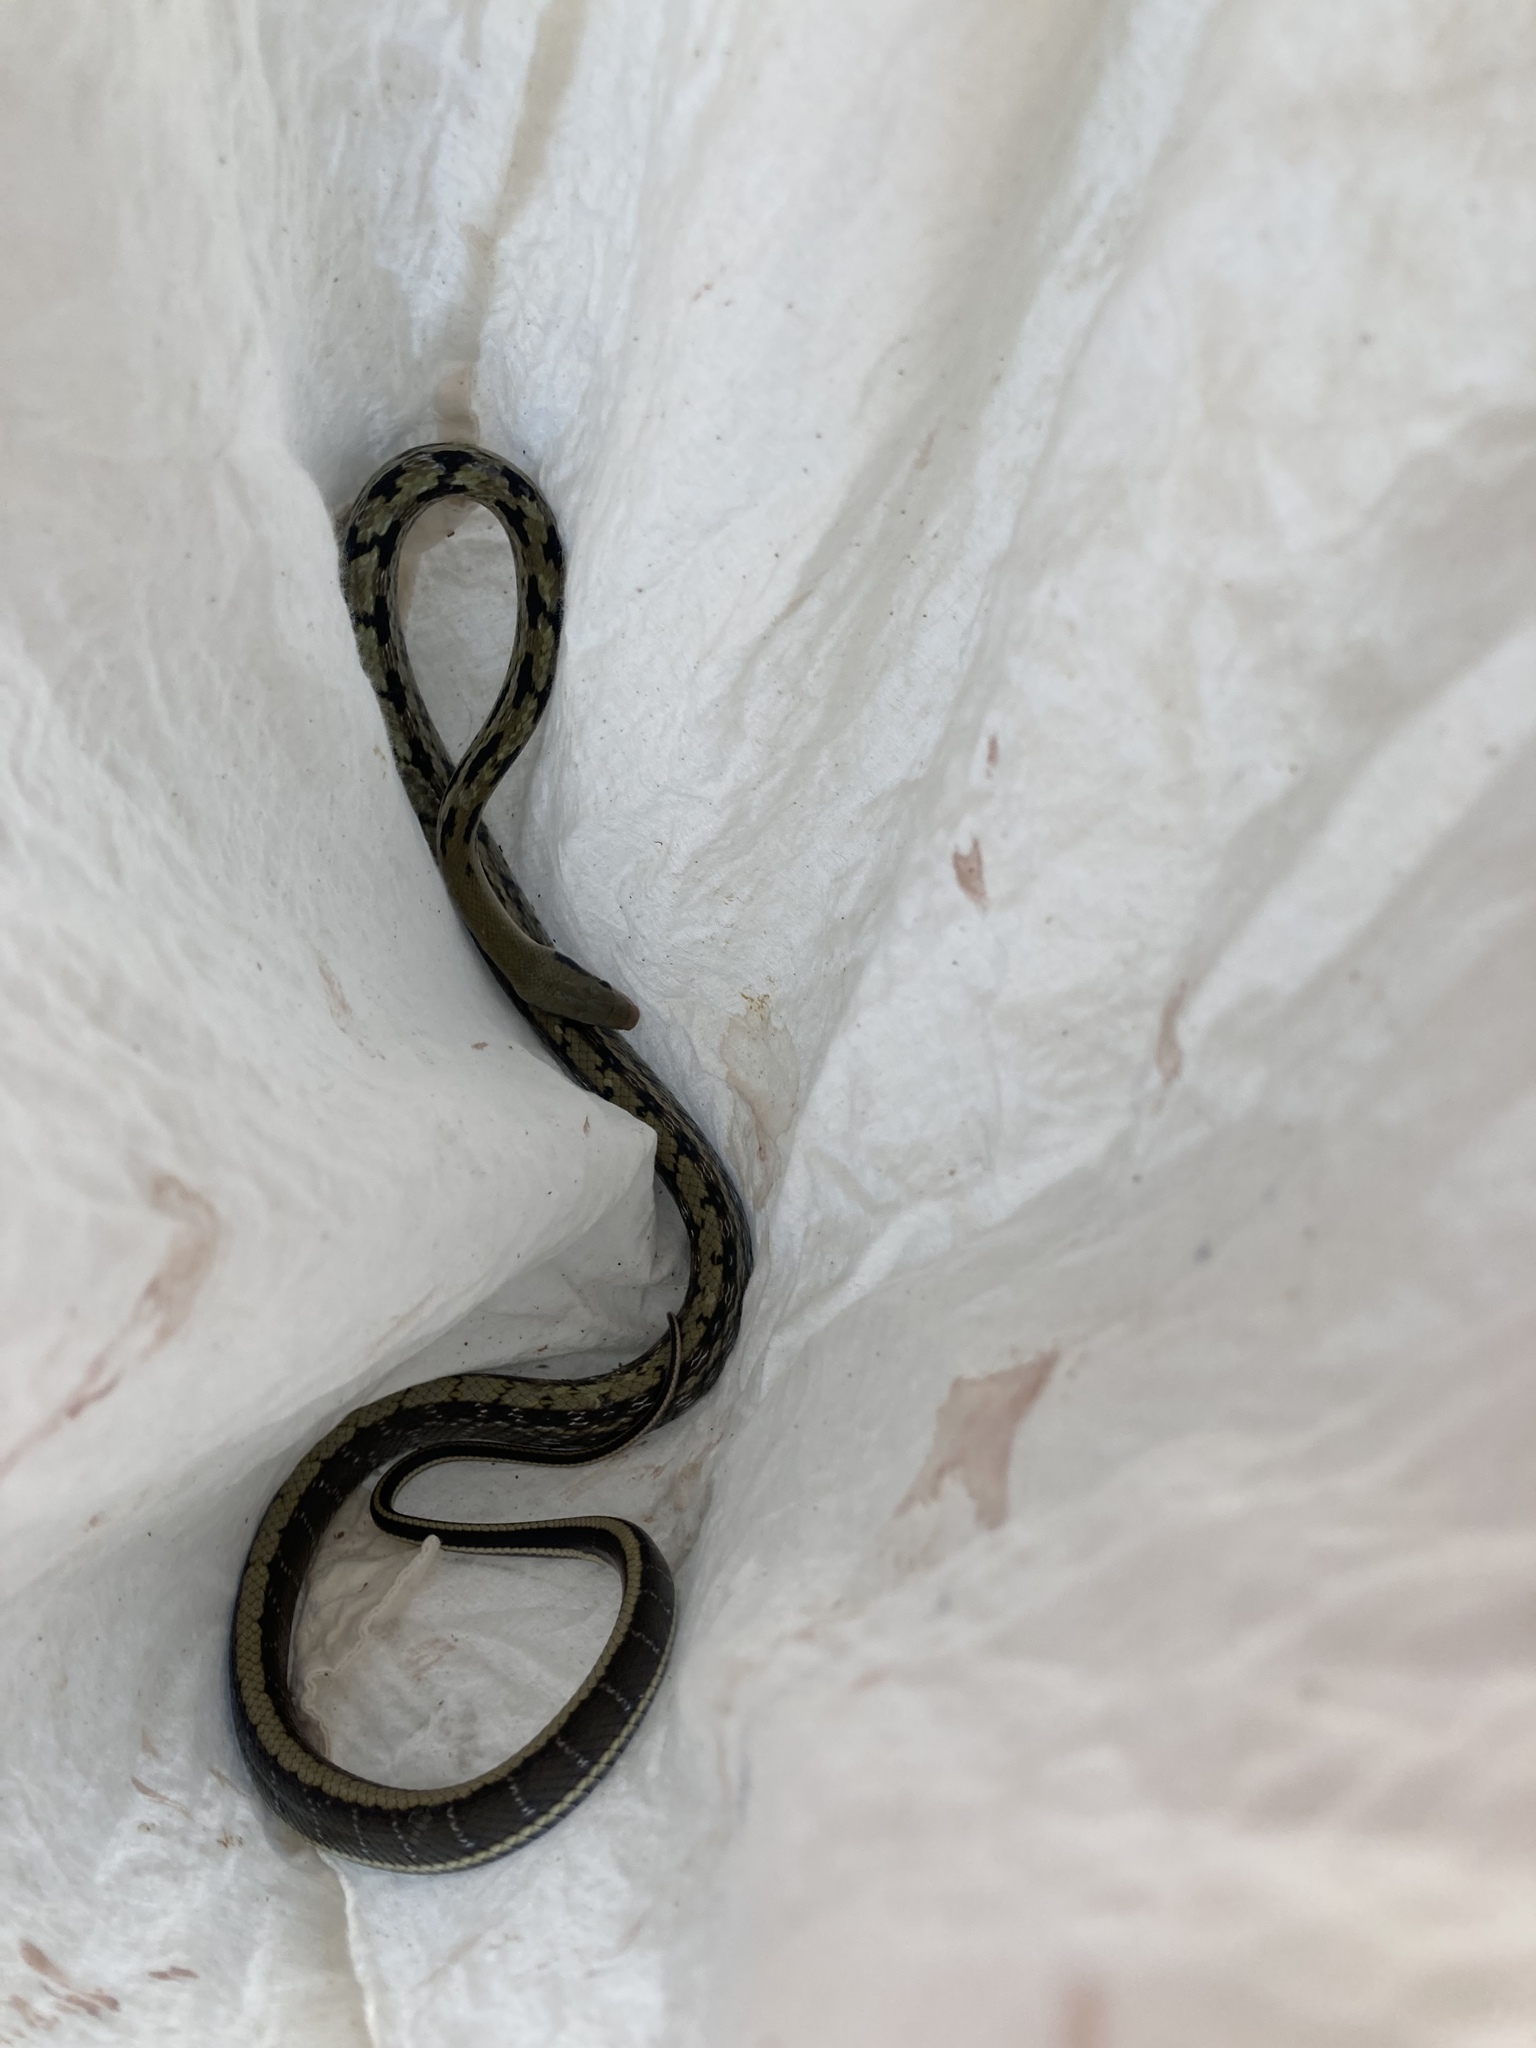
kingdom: Animalia
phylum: Chordata
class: Squamata
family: Colubridae
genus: Elaphe
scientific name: Elaphe taeniura
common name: Beauty snake
